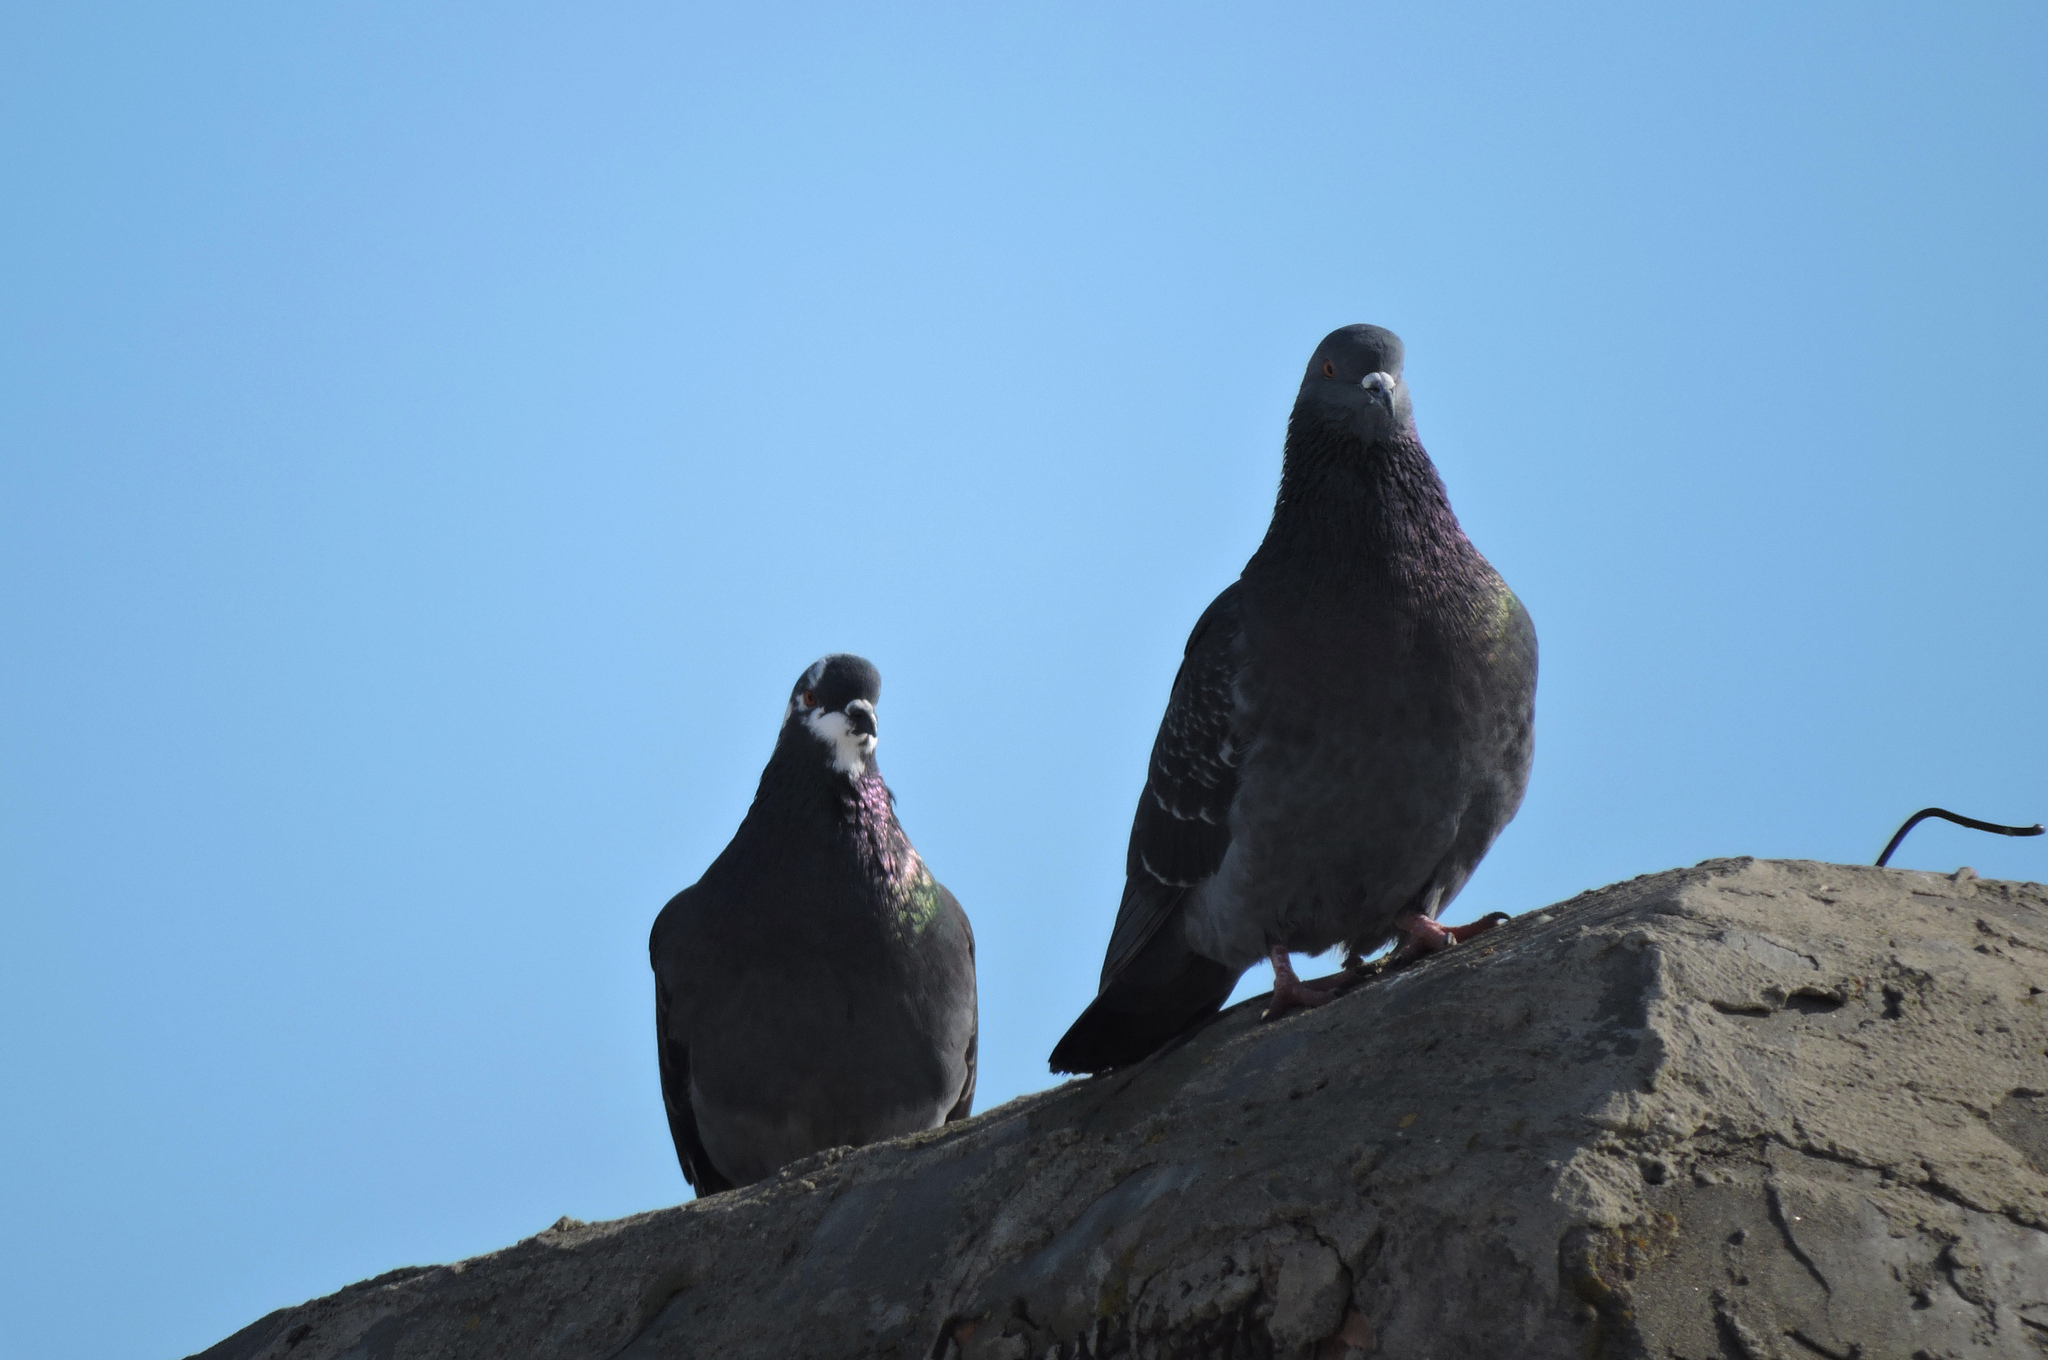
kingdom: Animalia
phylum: Chordata
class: Aves
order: Columbiformes
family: Columbidae
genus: Columba
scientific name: Columba livia
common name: Rock pigeon
